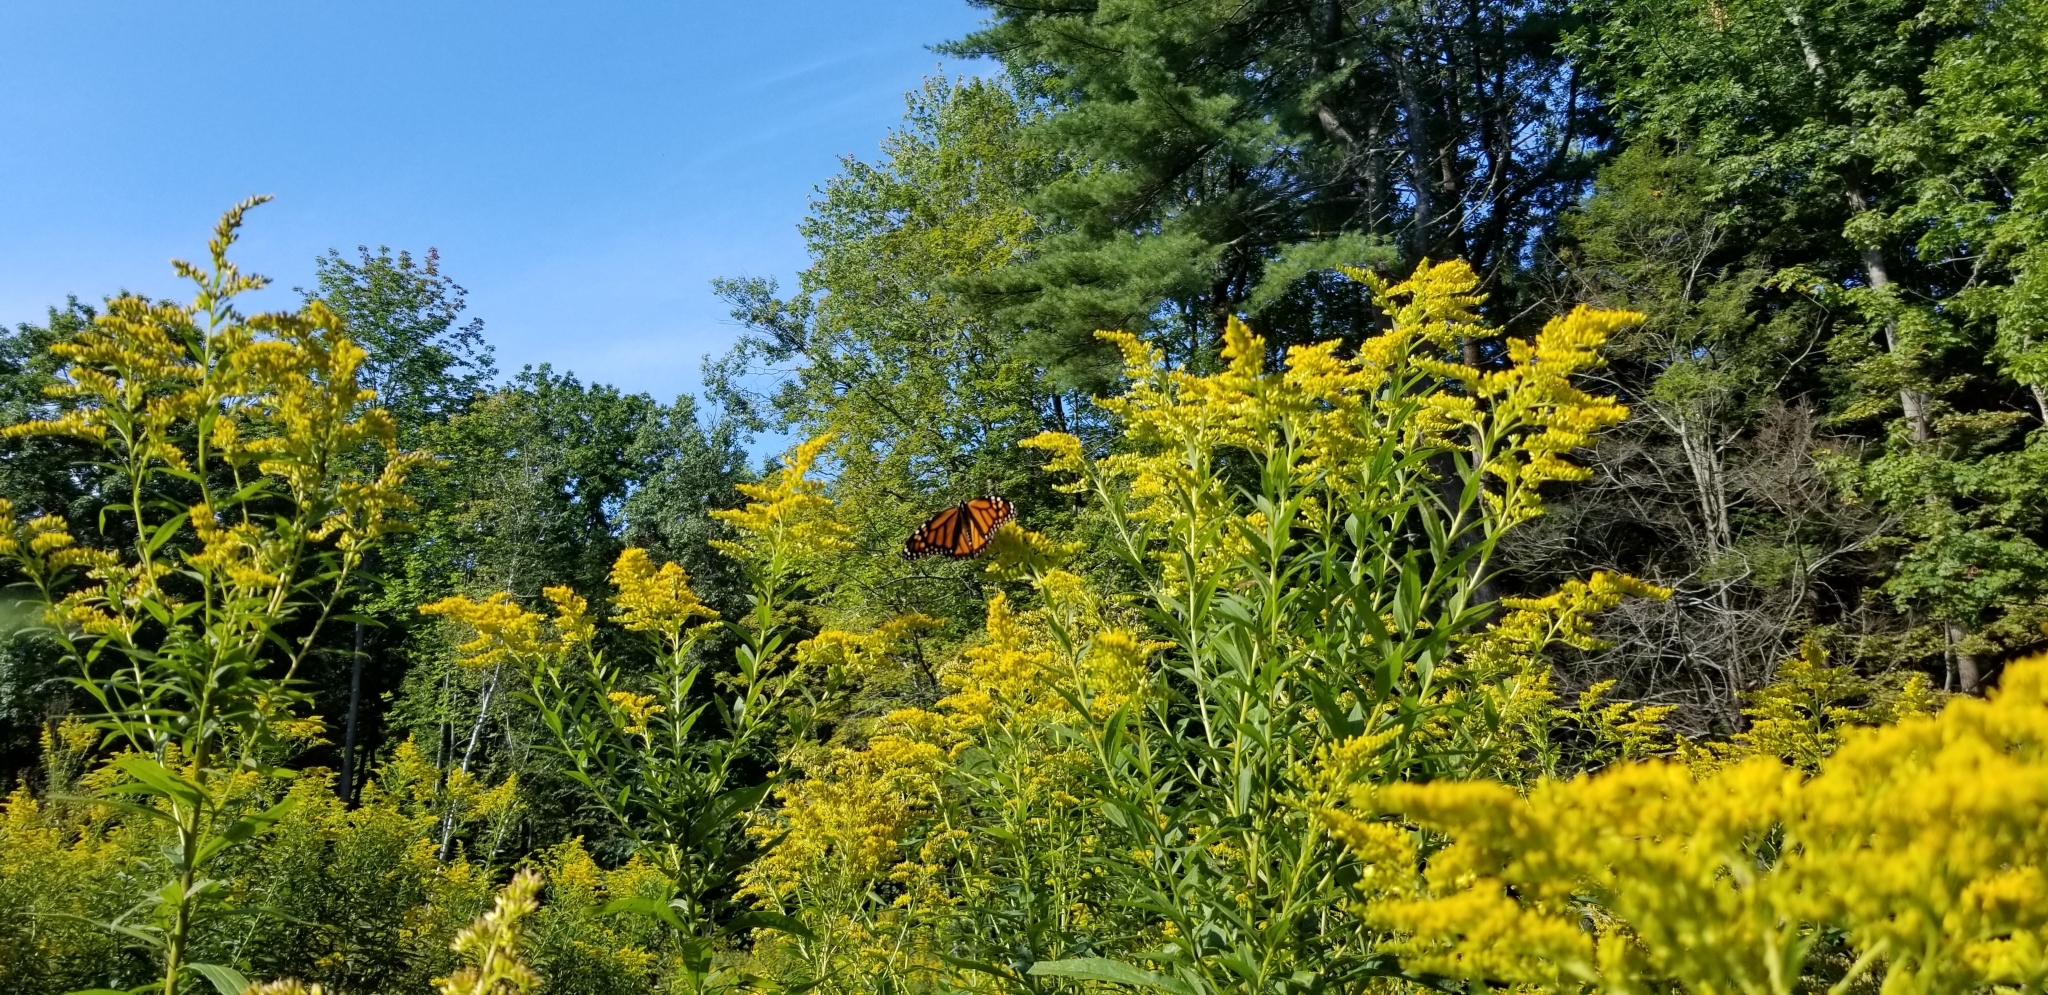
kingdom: Animalia
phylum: Arthropoda
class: Insecta
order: Lepidoptera
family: Nymphalidae
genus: Danaus
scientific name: Danaus plexippus
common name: Monarch
